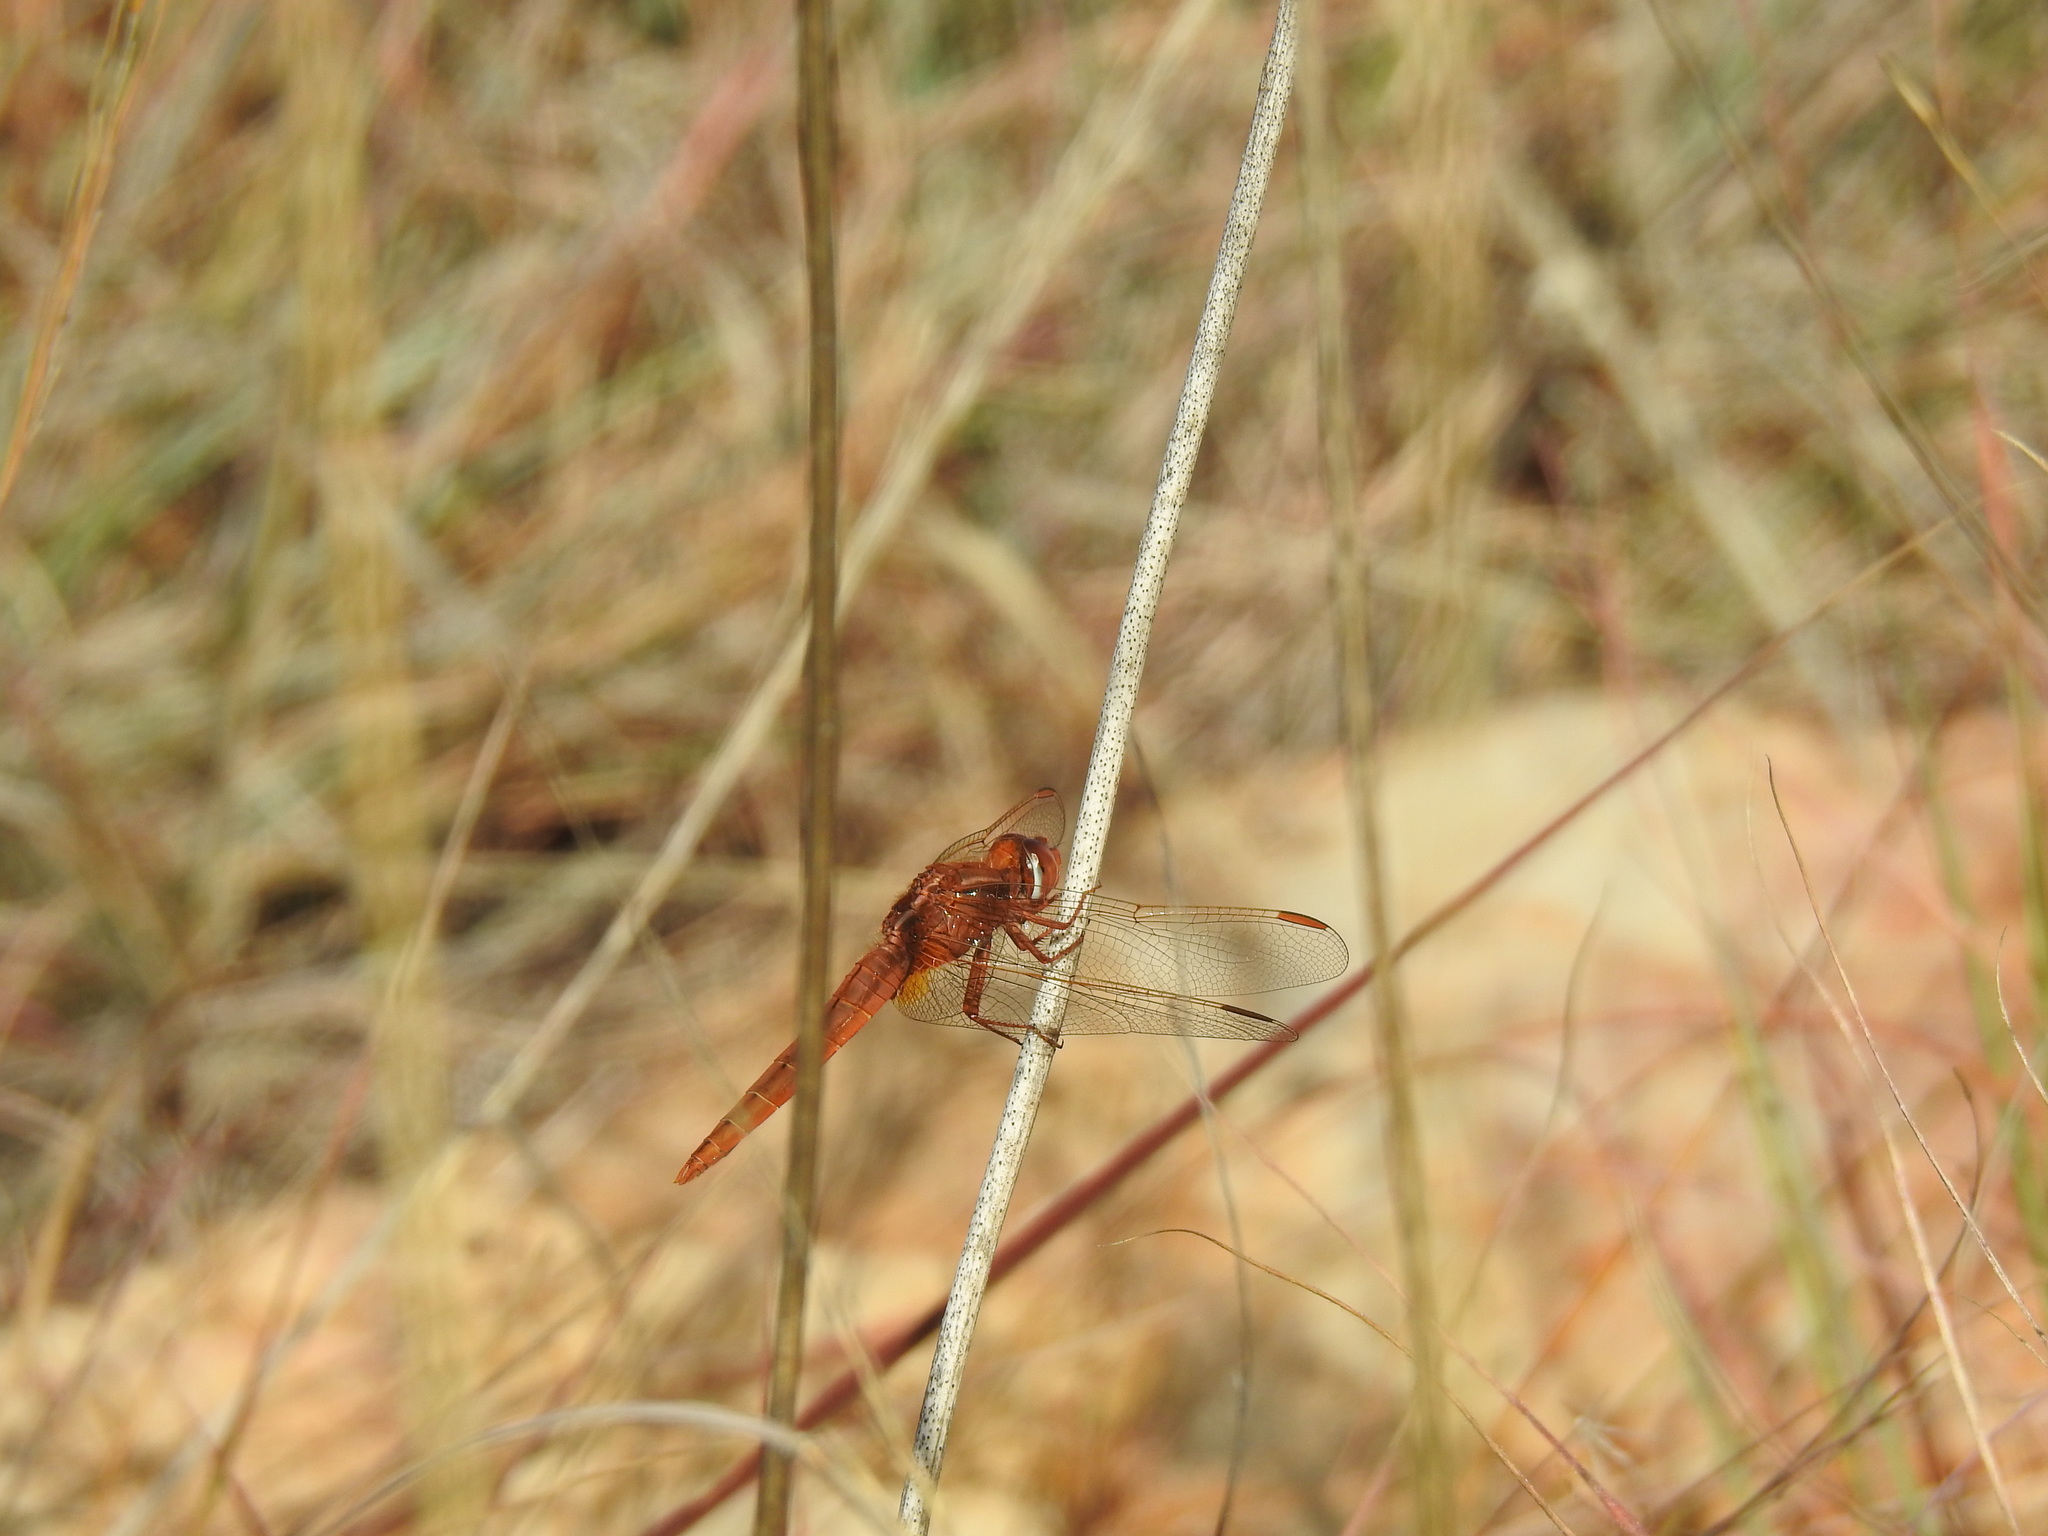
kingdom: Animalia
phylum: Arthropoda
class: Insecta
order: Odonata
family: Libellulidae
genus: Crocothemis
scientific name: Crocothemis erythraea
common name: Scarlet dragonfly
